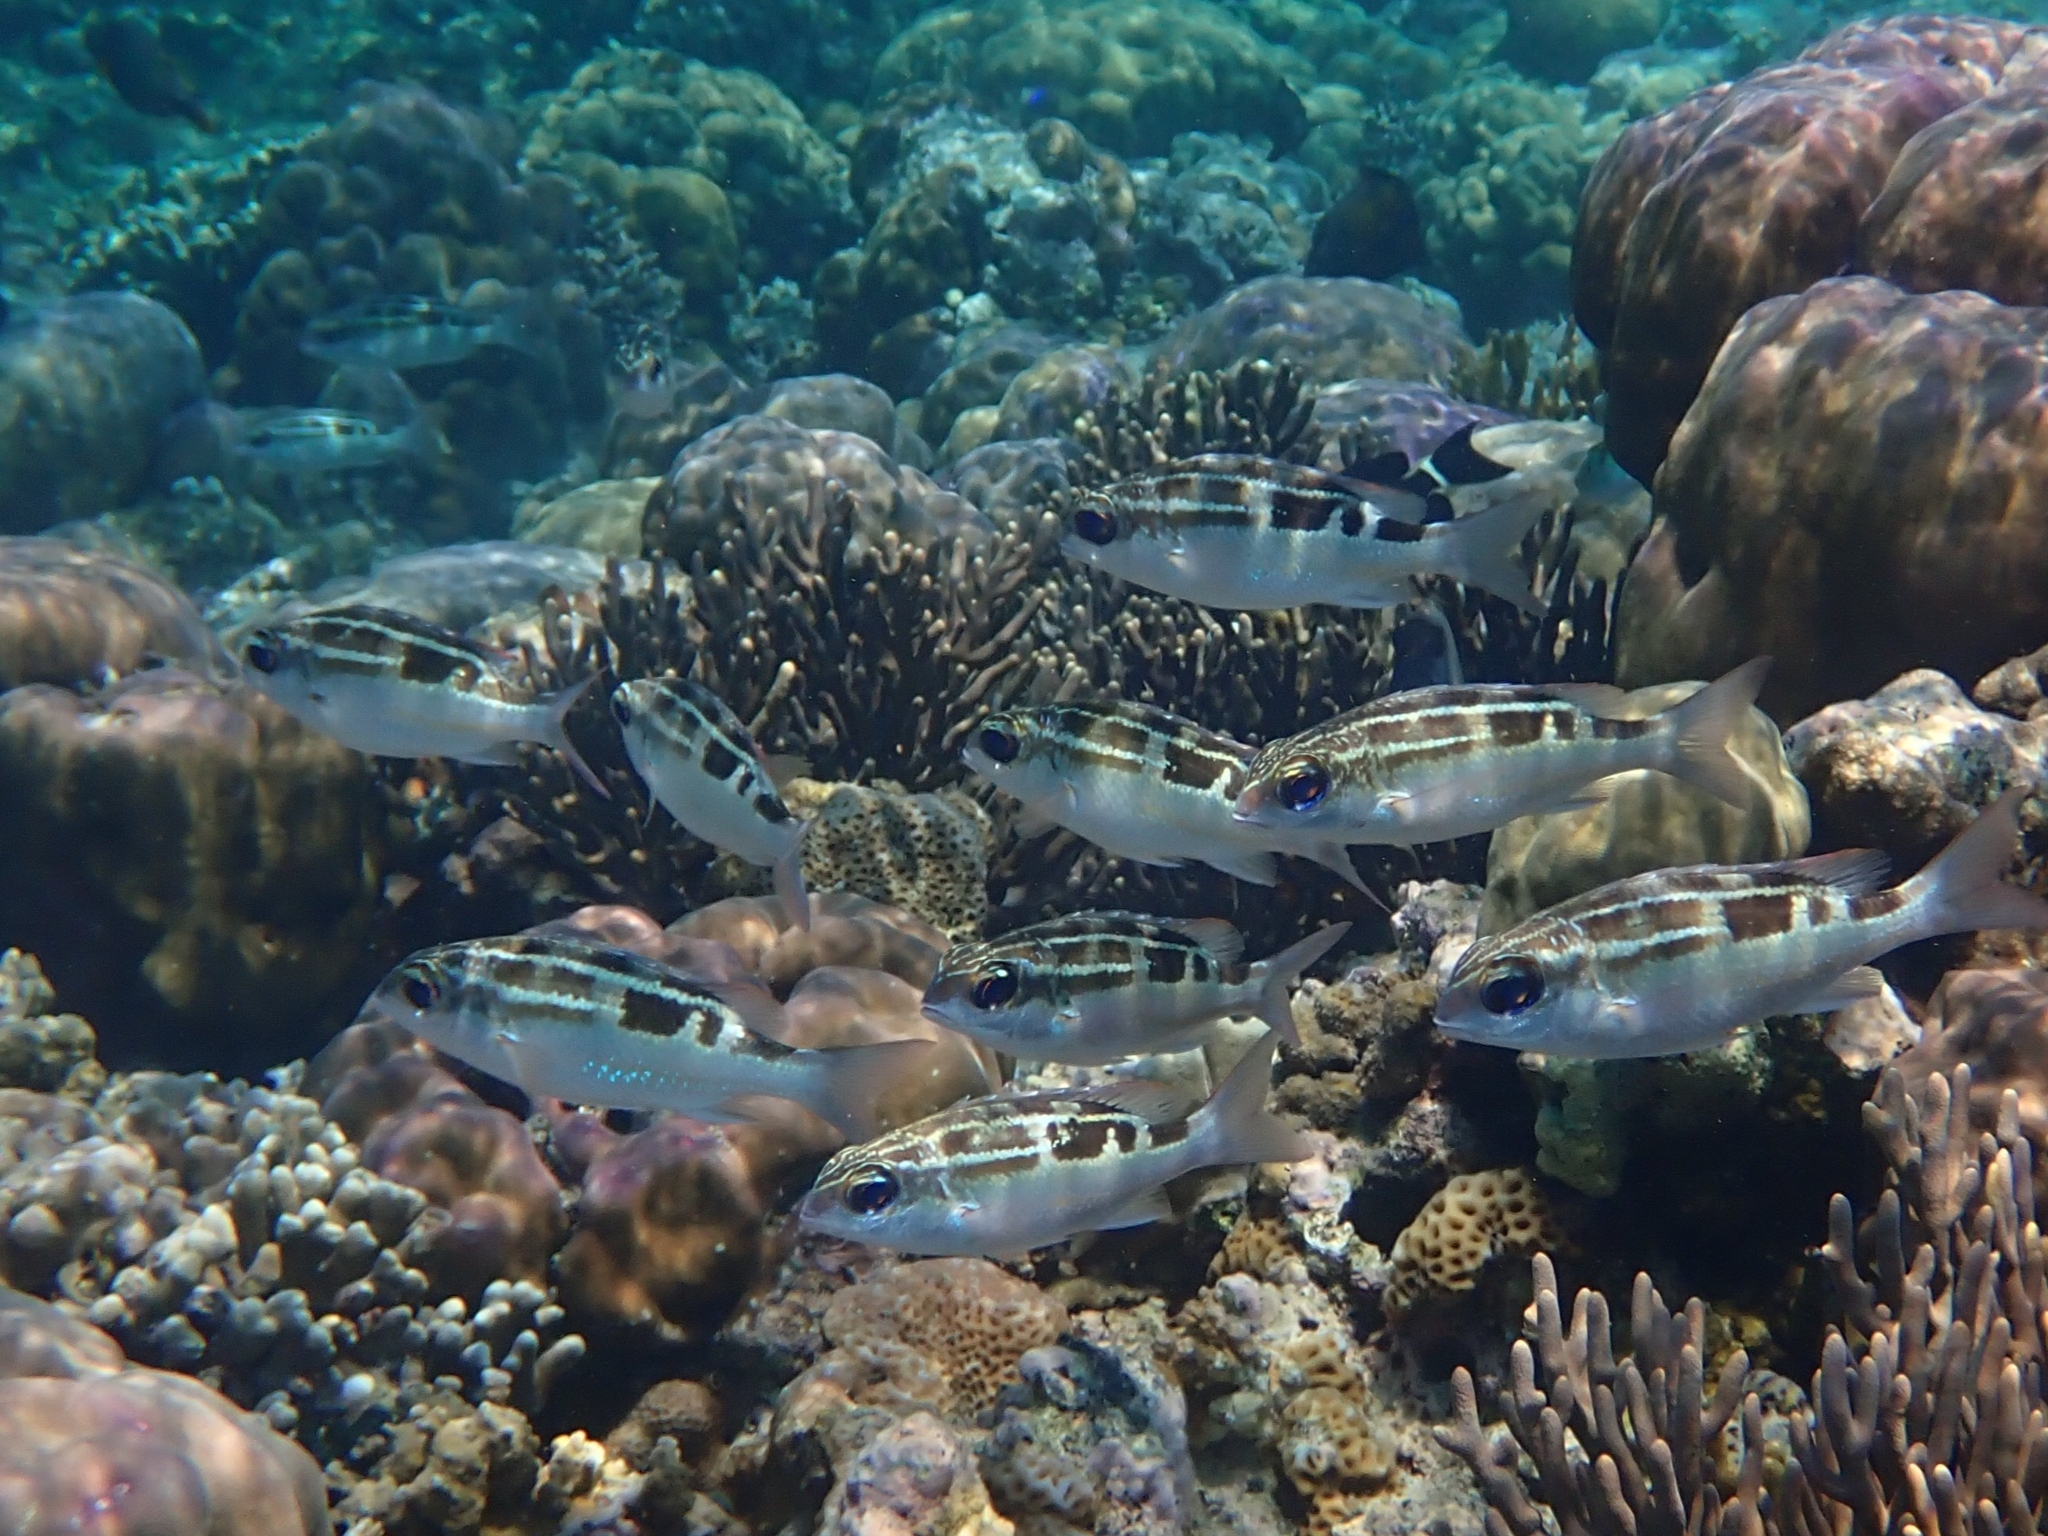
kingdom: Animalia
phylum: Chordata
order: Perciformes
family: Nemipteridae
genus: Scolopsis
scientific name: Scolopsis lineata
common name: Striped monocle bream
